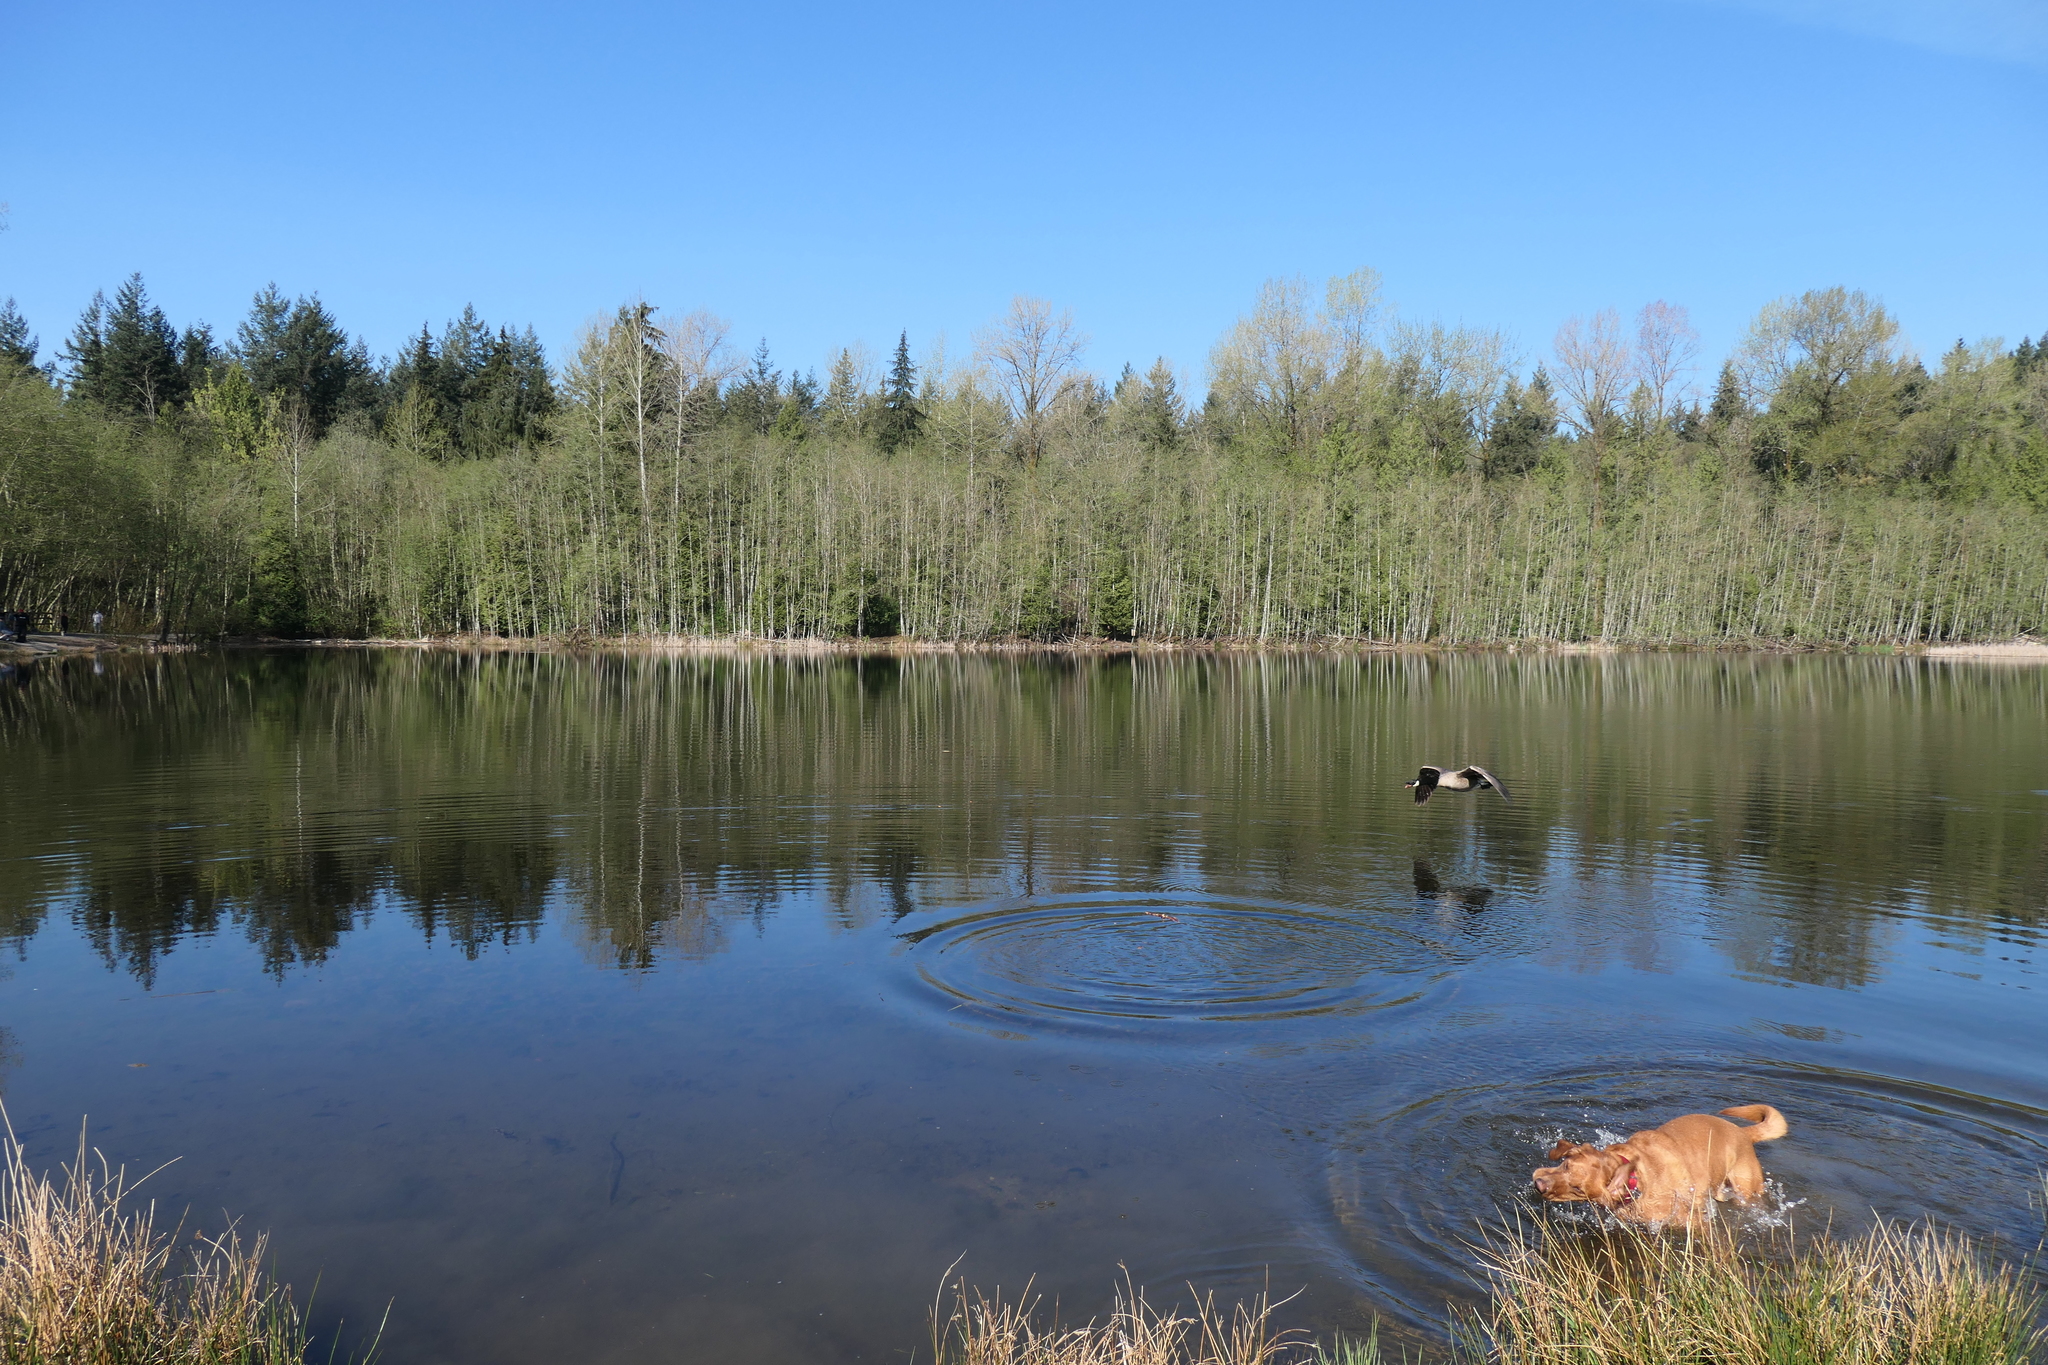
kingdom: Animalia
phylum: Chordata
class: Aves
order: Anseriformes
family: Anatidae
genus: Branta
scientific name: Branta canadensis
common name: Canada goose
